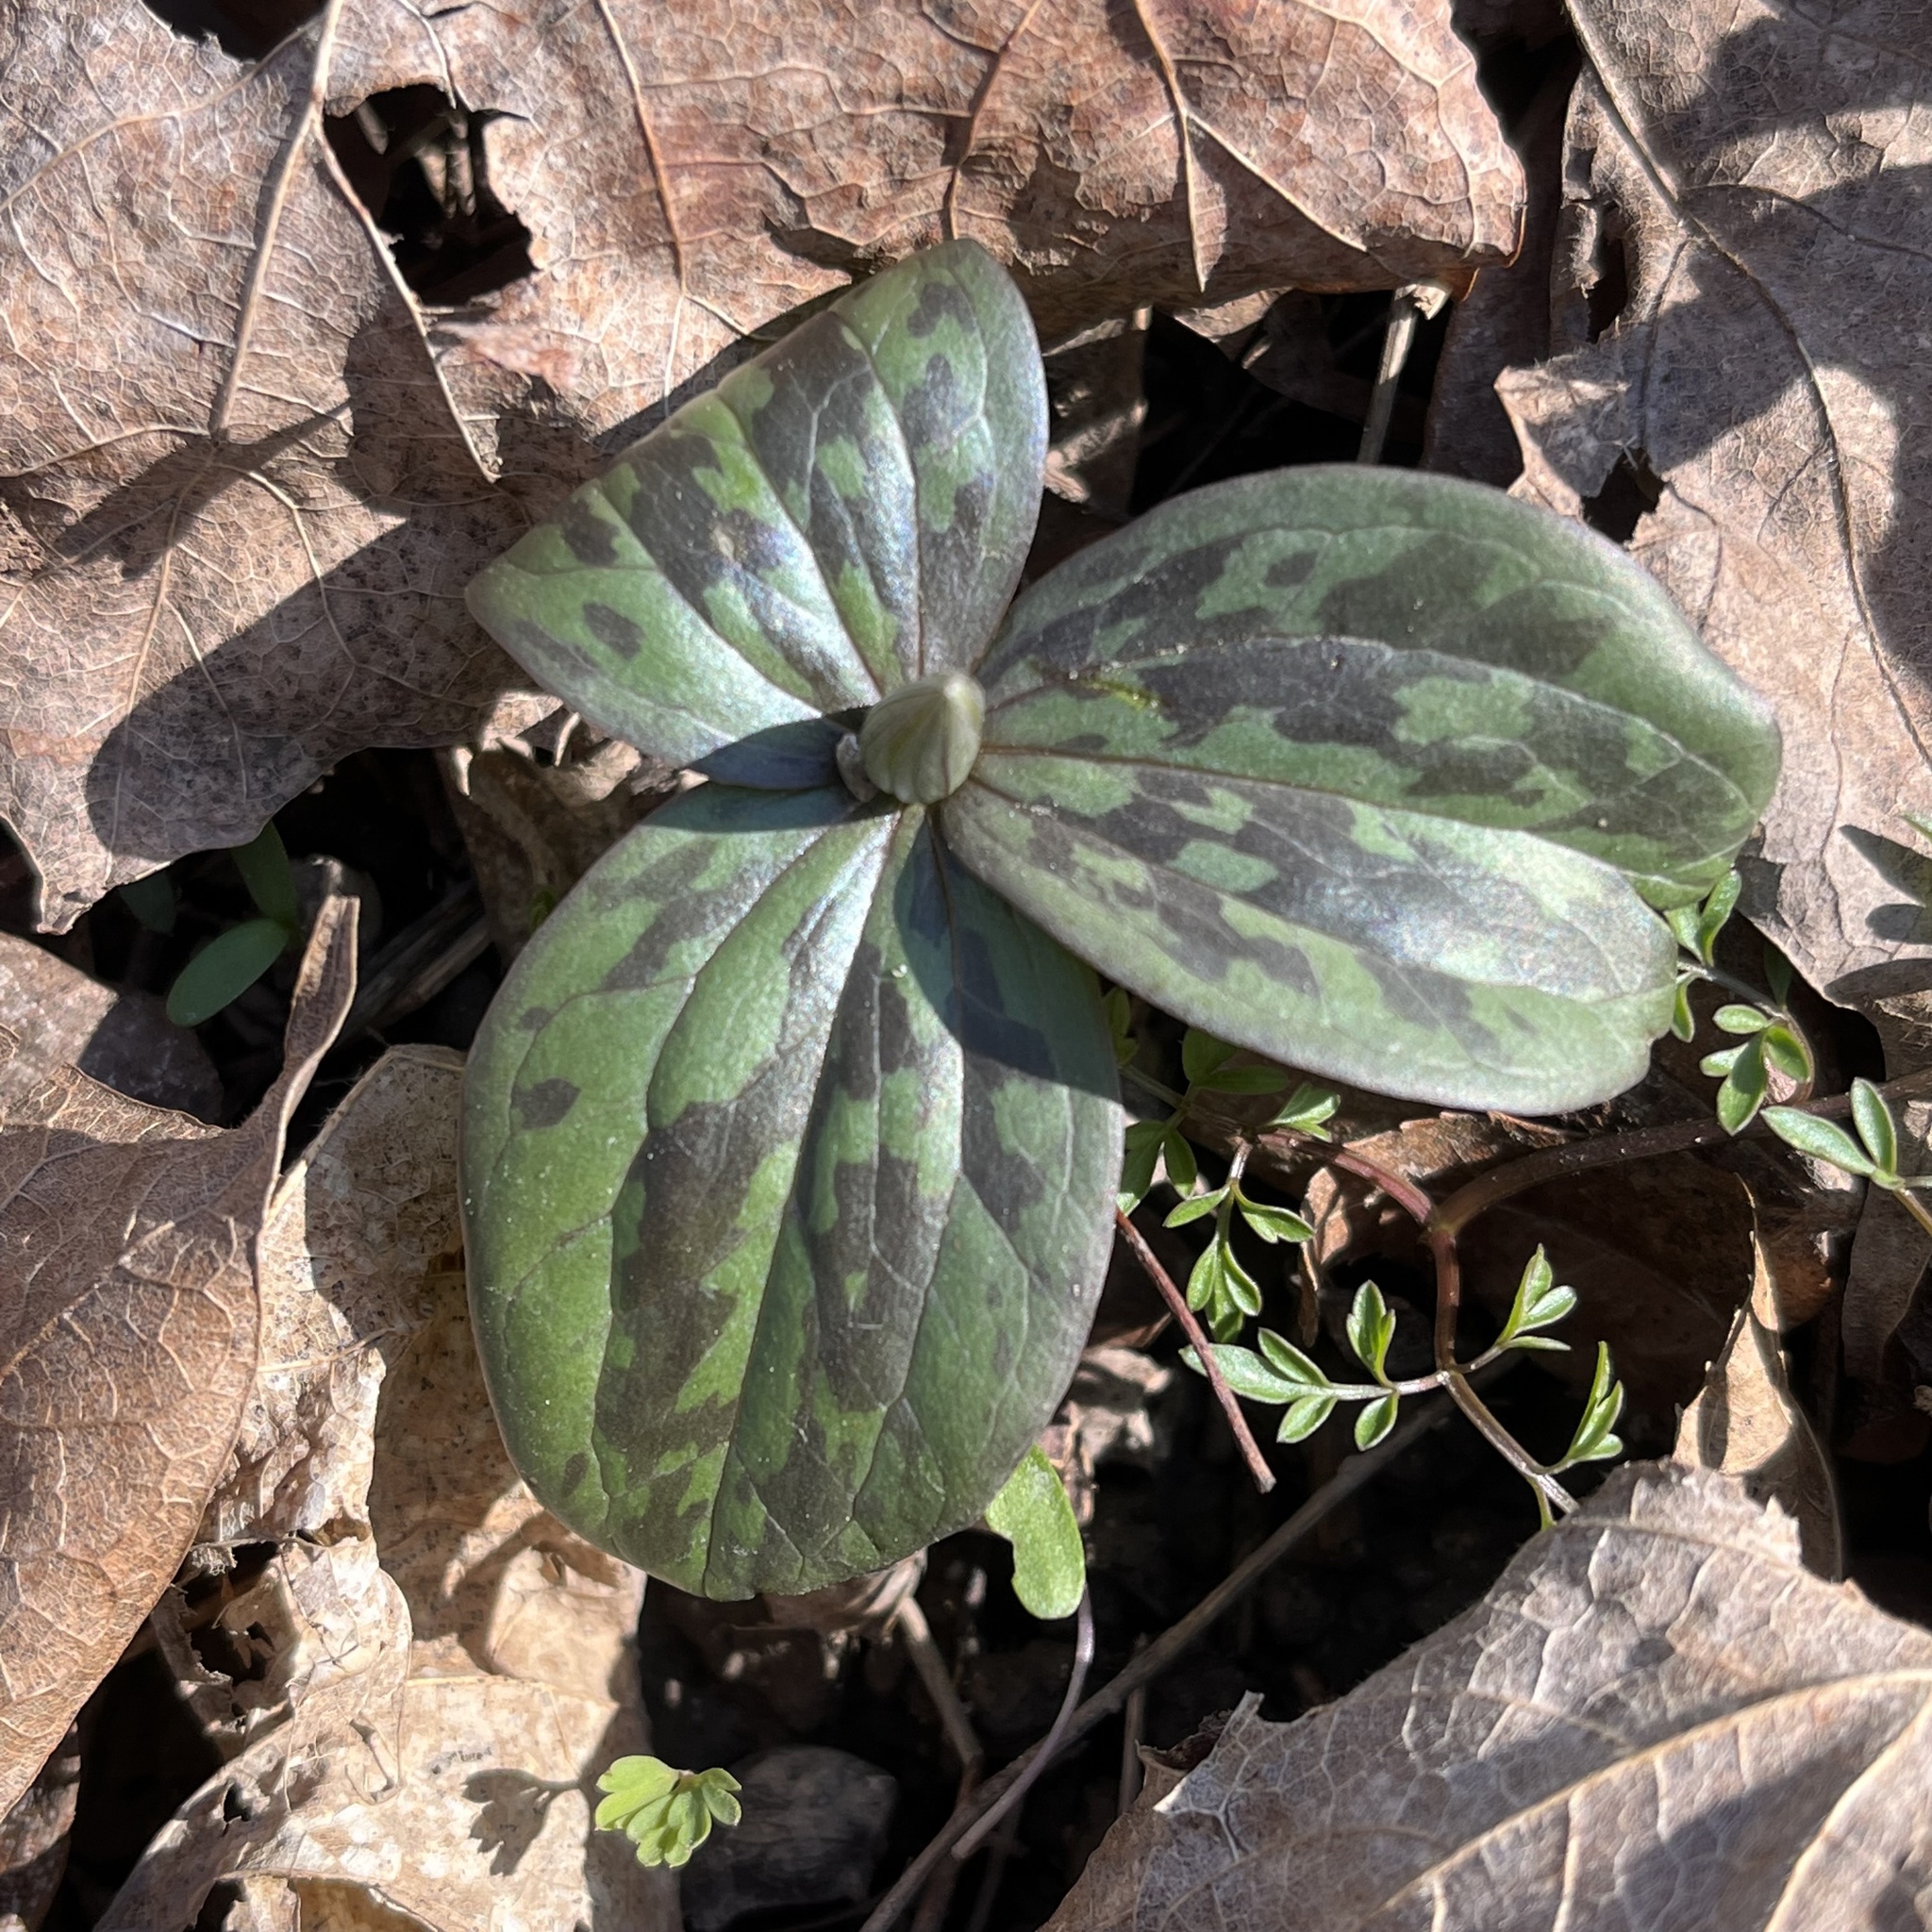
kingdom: Plantae
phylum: Tracheophyta
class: Liliopsida
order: Liliales
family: Melanthiaceae
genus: Trillium
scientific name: Trillium sessile
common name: Sessile trillium
